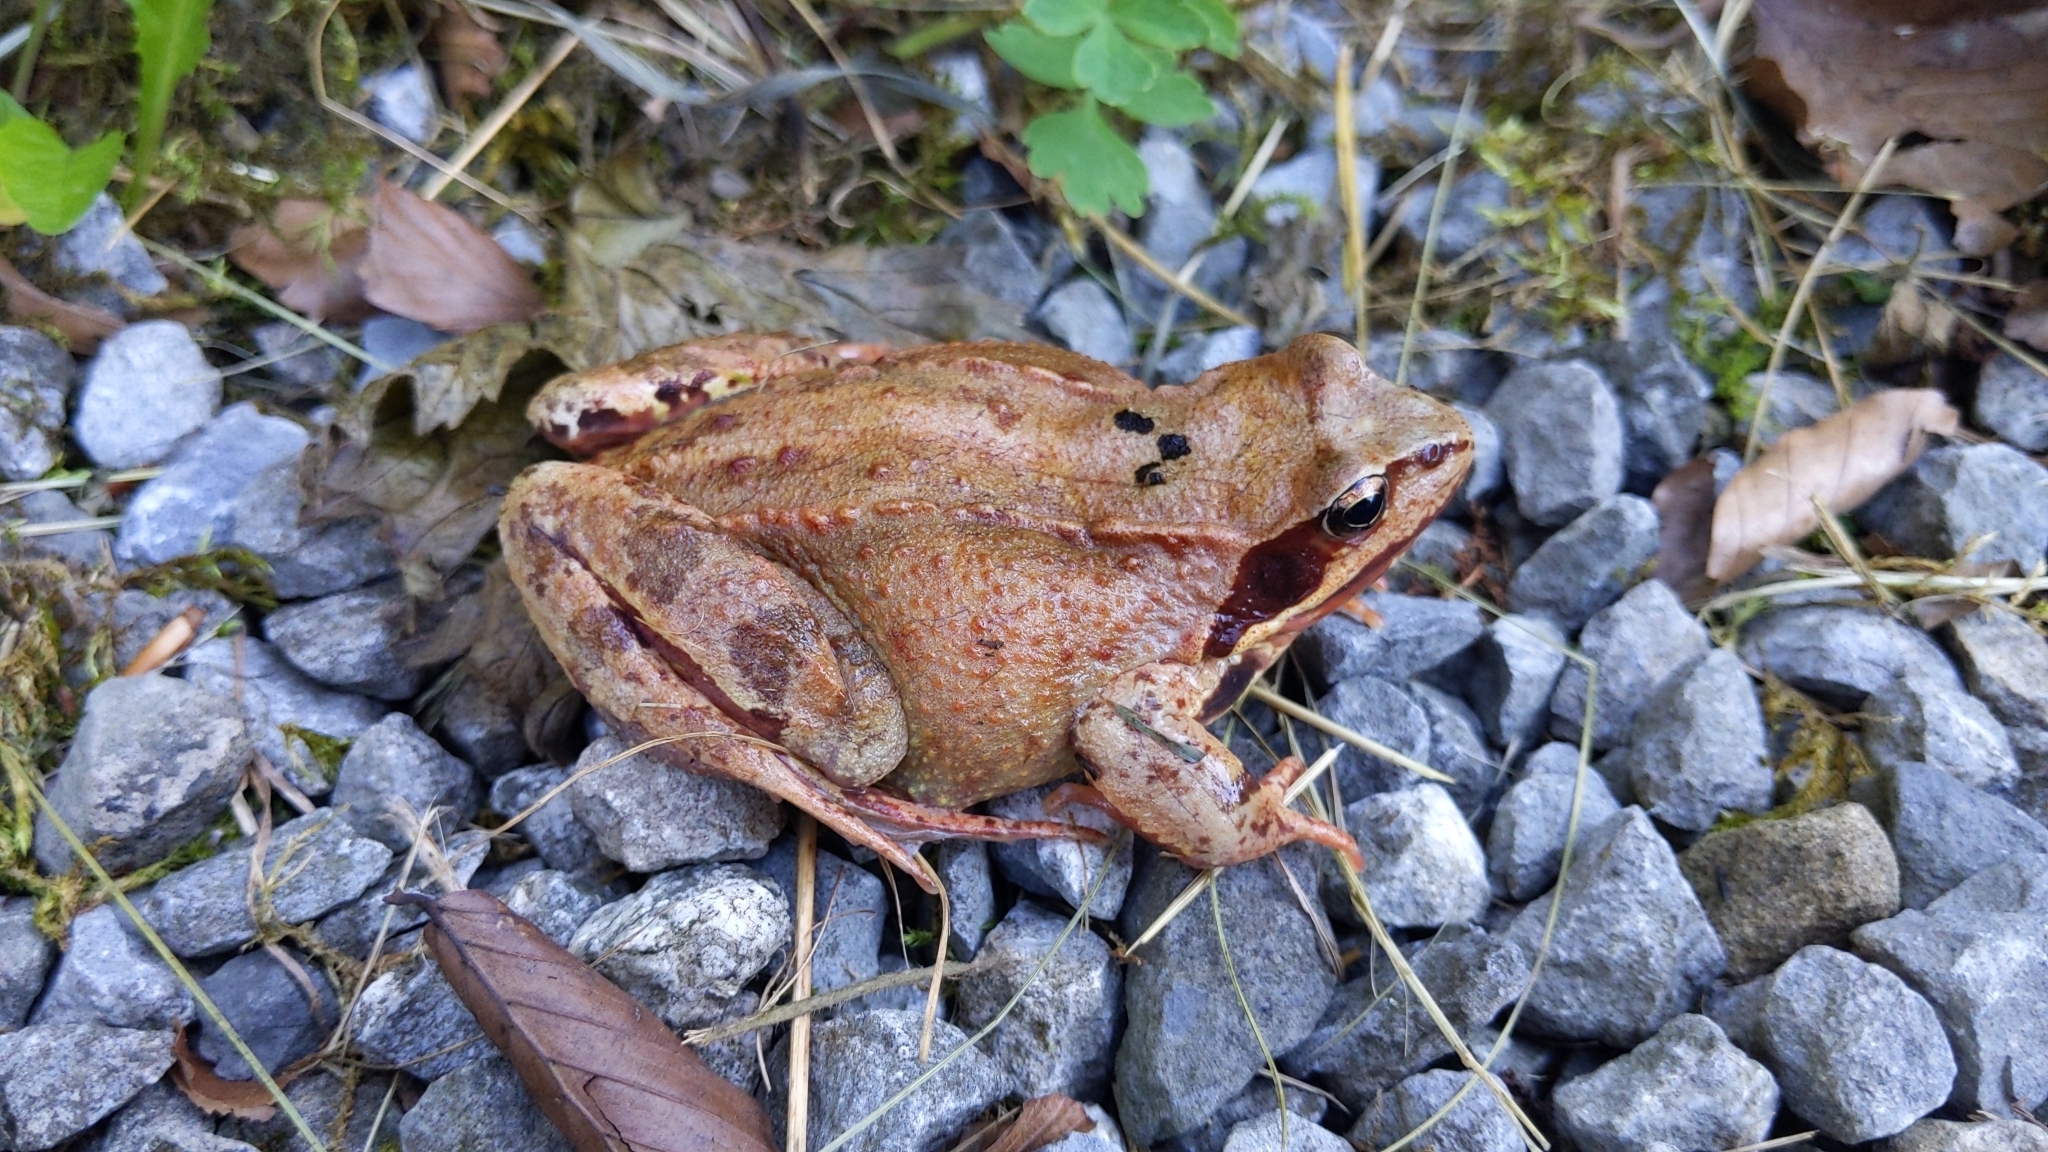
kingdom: Animalia
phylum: Chordata
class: Amphibia
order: Anura
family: Ranidae
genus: Rana
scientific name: Rana temporaria
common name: Common frog
